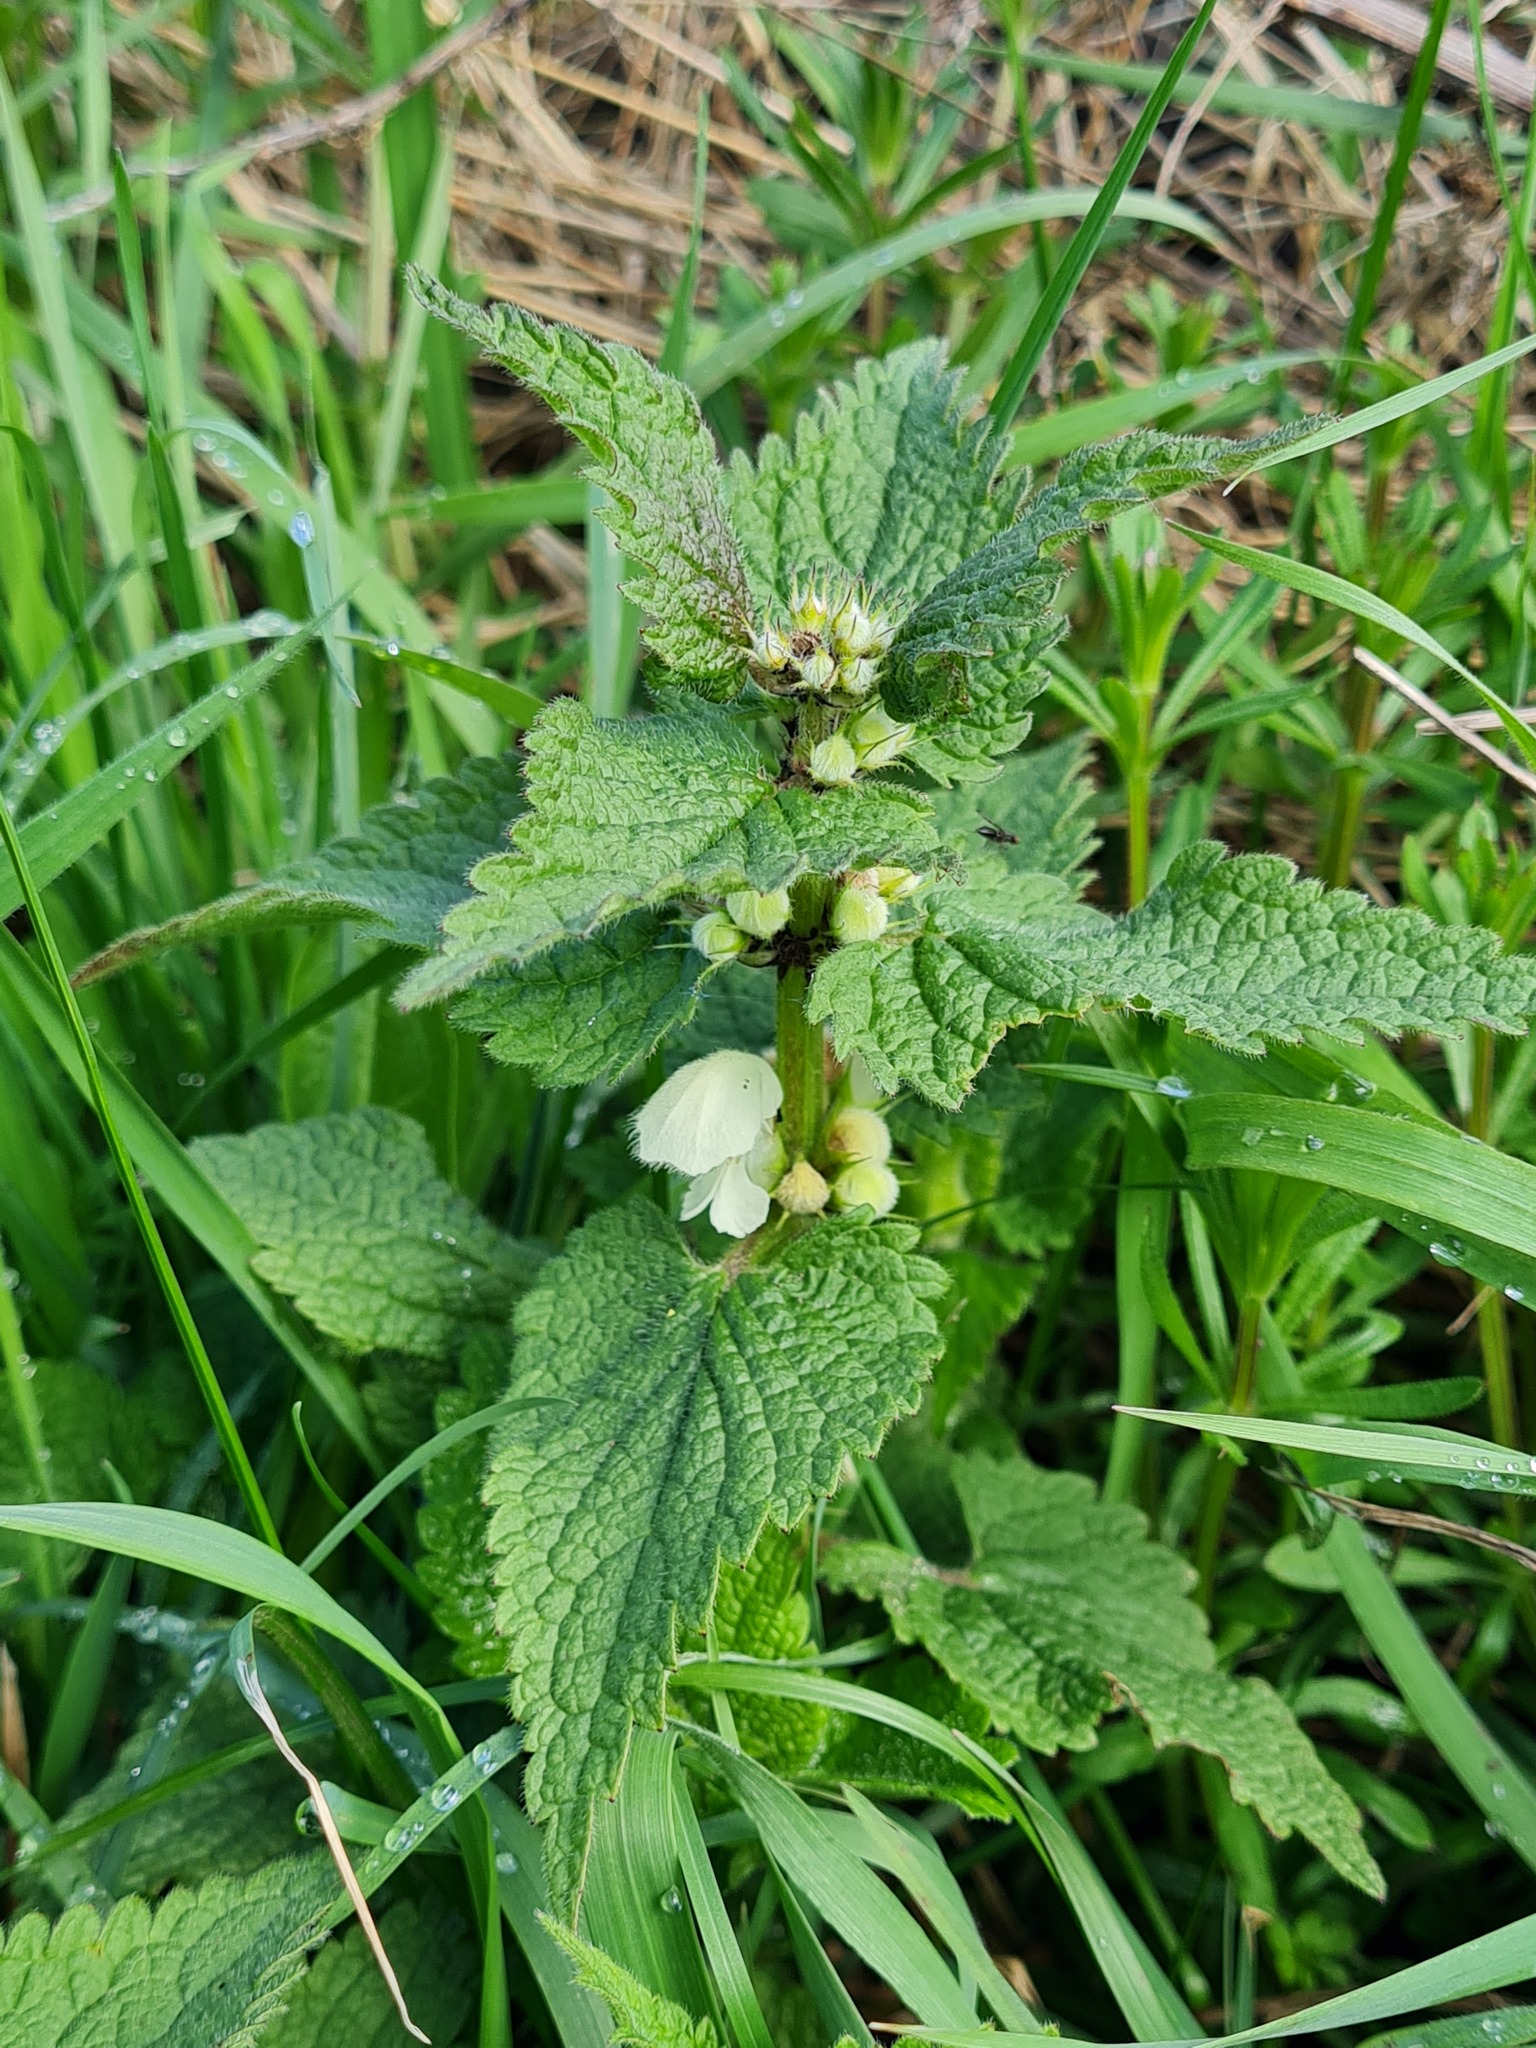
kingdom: Plantae
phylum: Tracheophyta
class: Magnoliopsida
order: Lamiales
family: Lamiaceae
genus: Lamium
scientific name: Lamium album
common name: White dead-nettle
